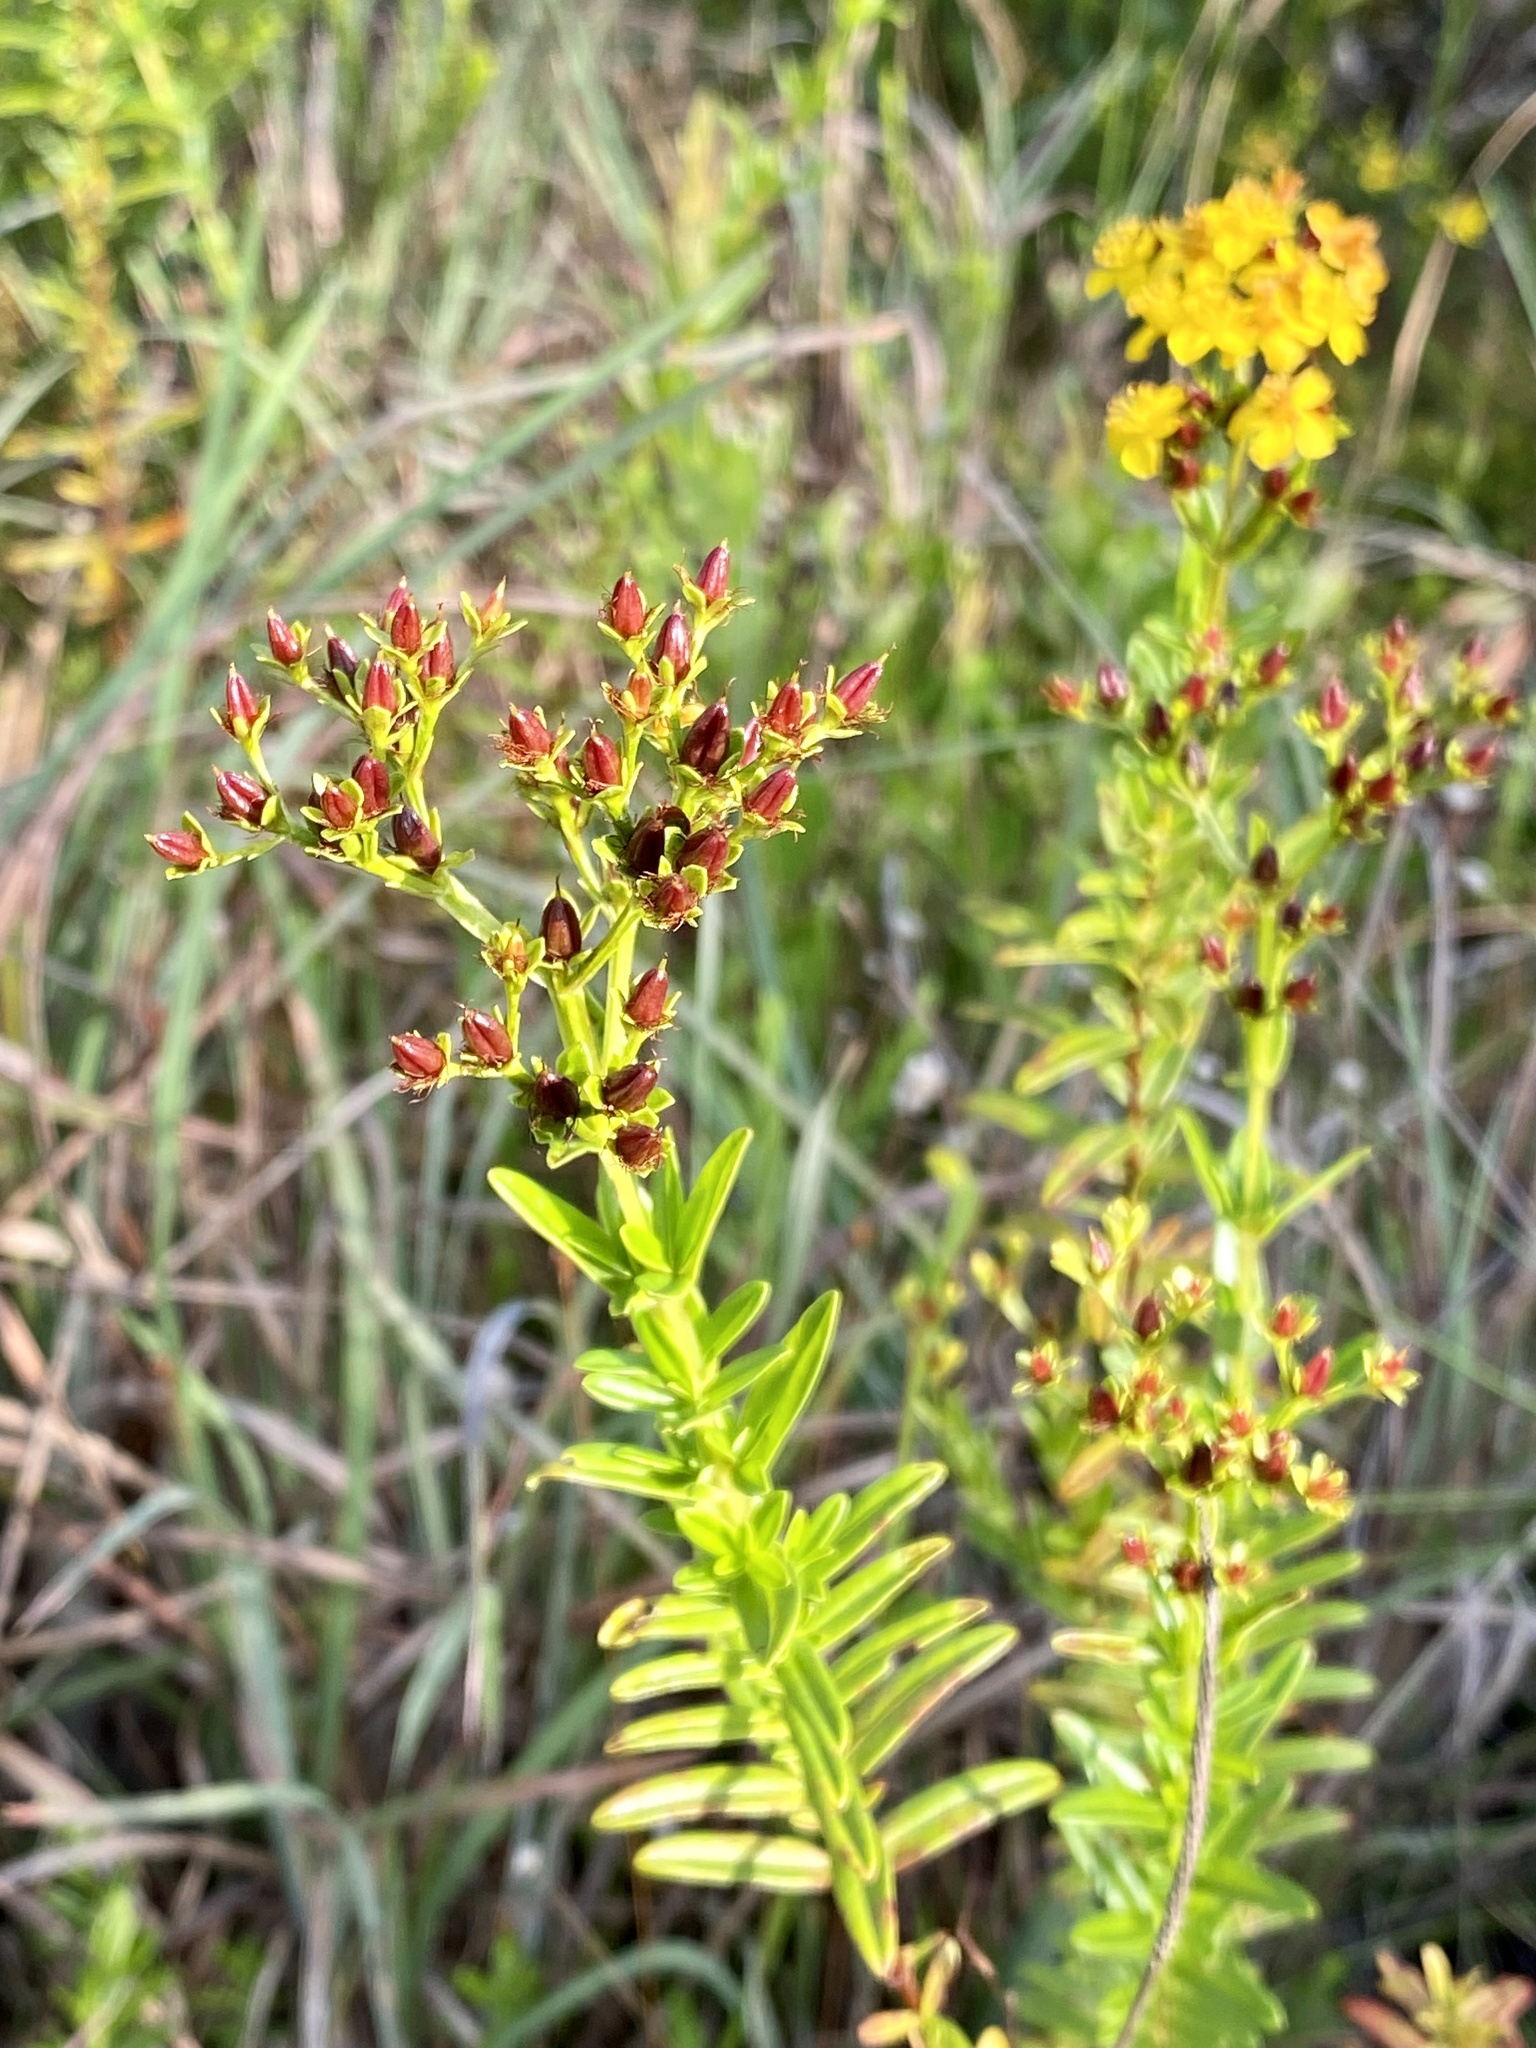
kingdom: Plantae
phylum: Tracheophyta
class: Magnoliopsida
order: Malpighiales
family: Hypericaceae
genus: Hypericum
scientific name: Hypericum cistifolium
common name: Round-pod st. john's-wort
